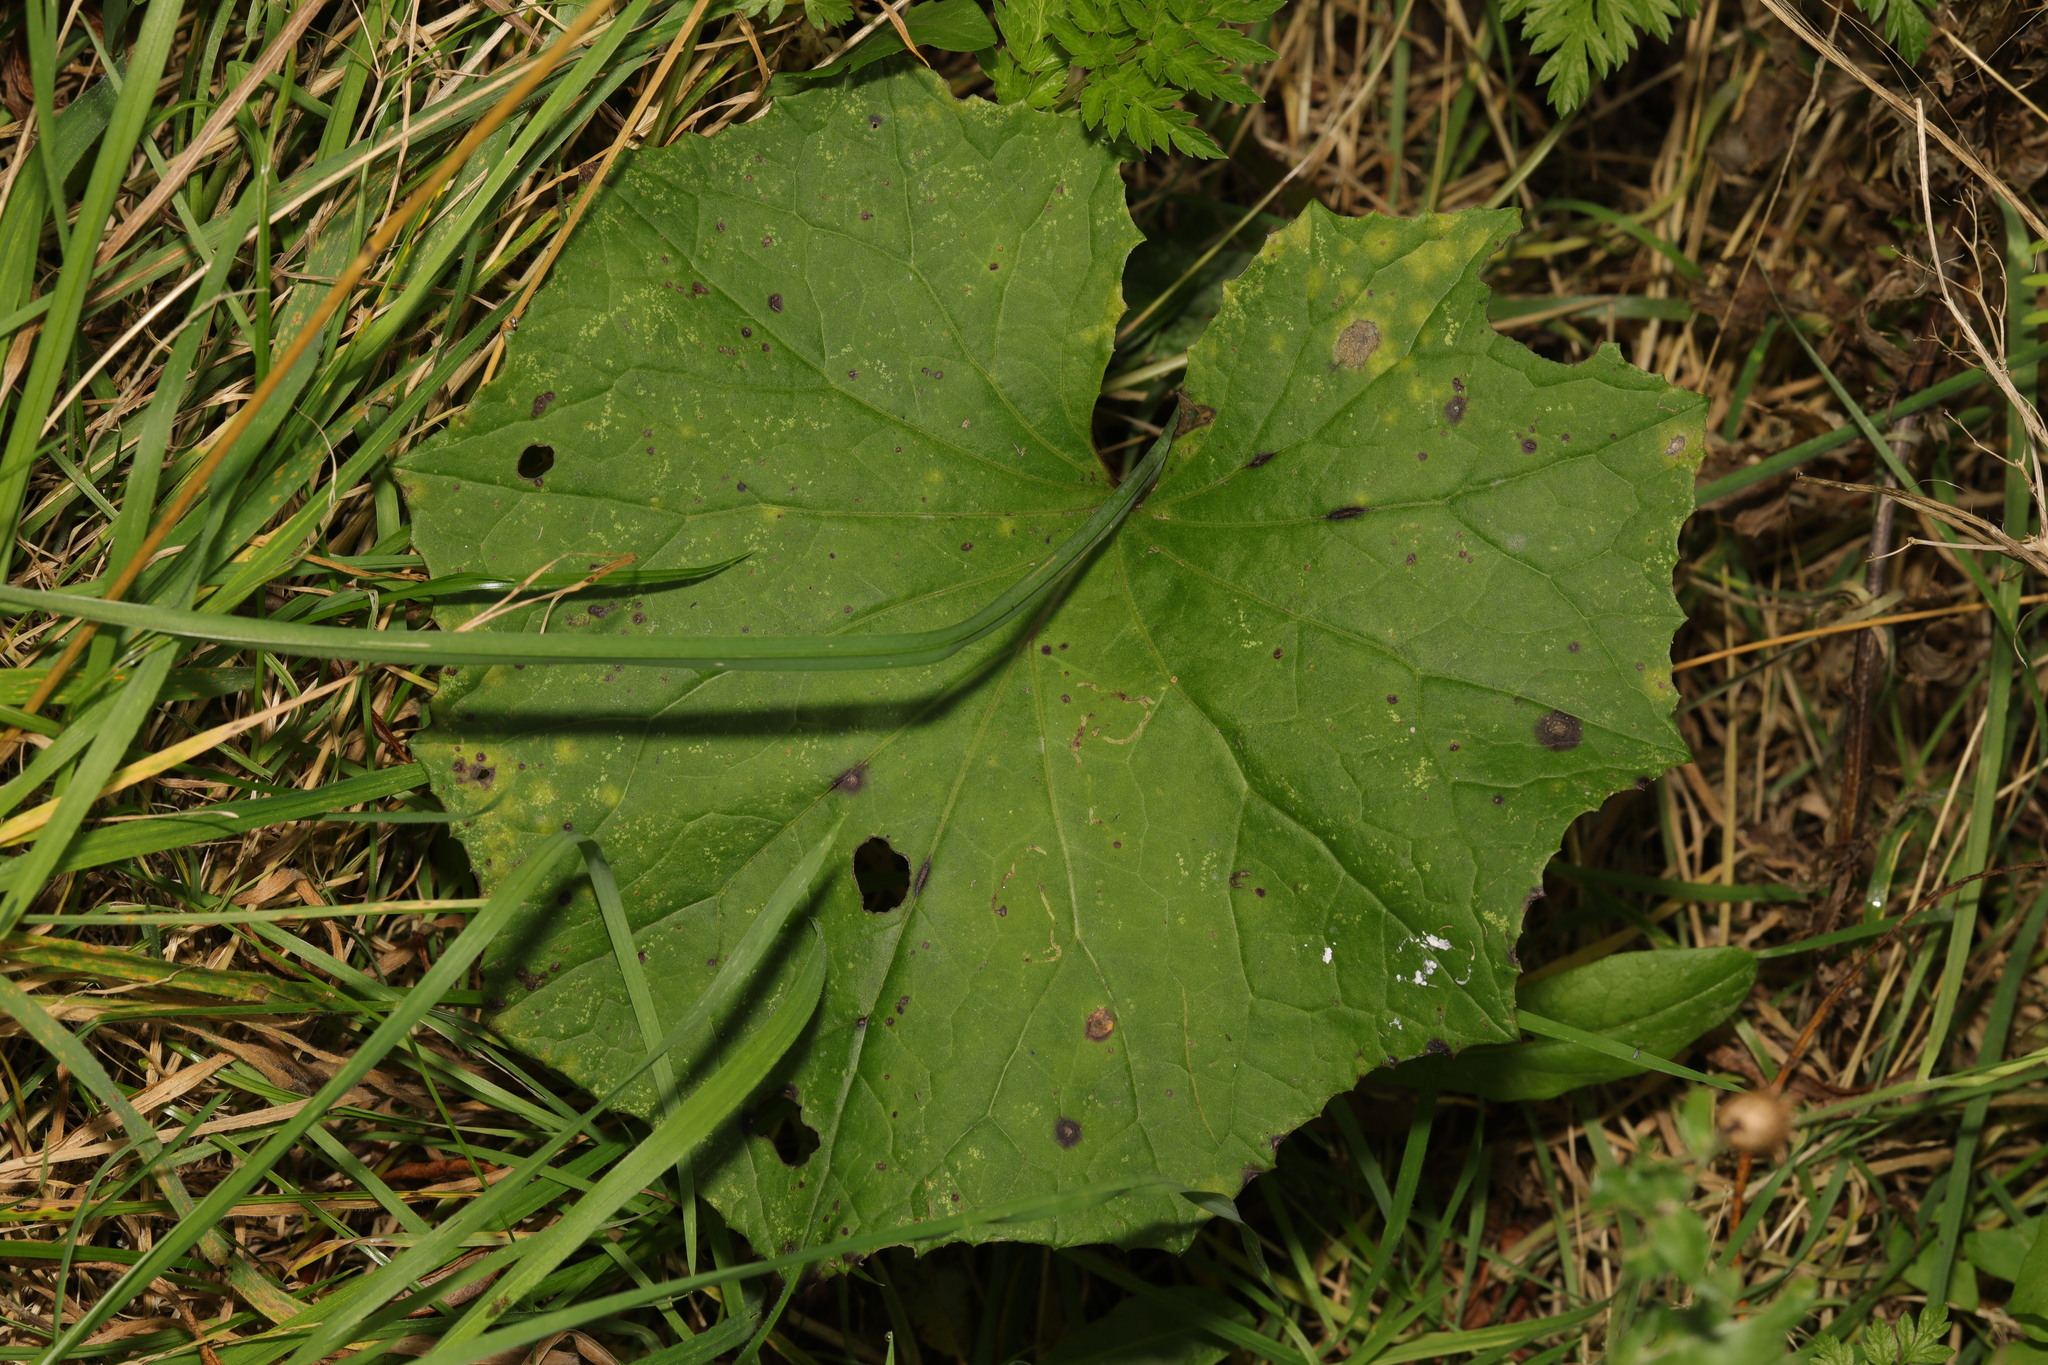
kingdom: Plantae
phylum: Tracheophyta
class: Magnoliopsida
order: Asterales
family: Asteraceae
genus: Tussilago
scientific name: Tussilago farfara
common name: Coltsfoot
